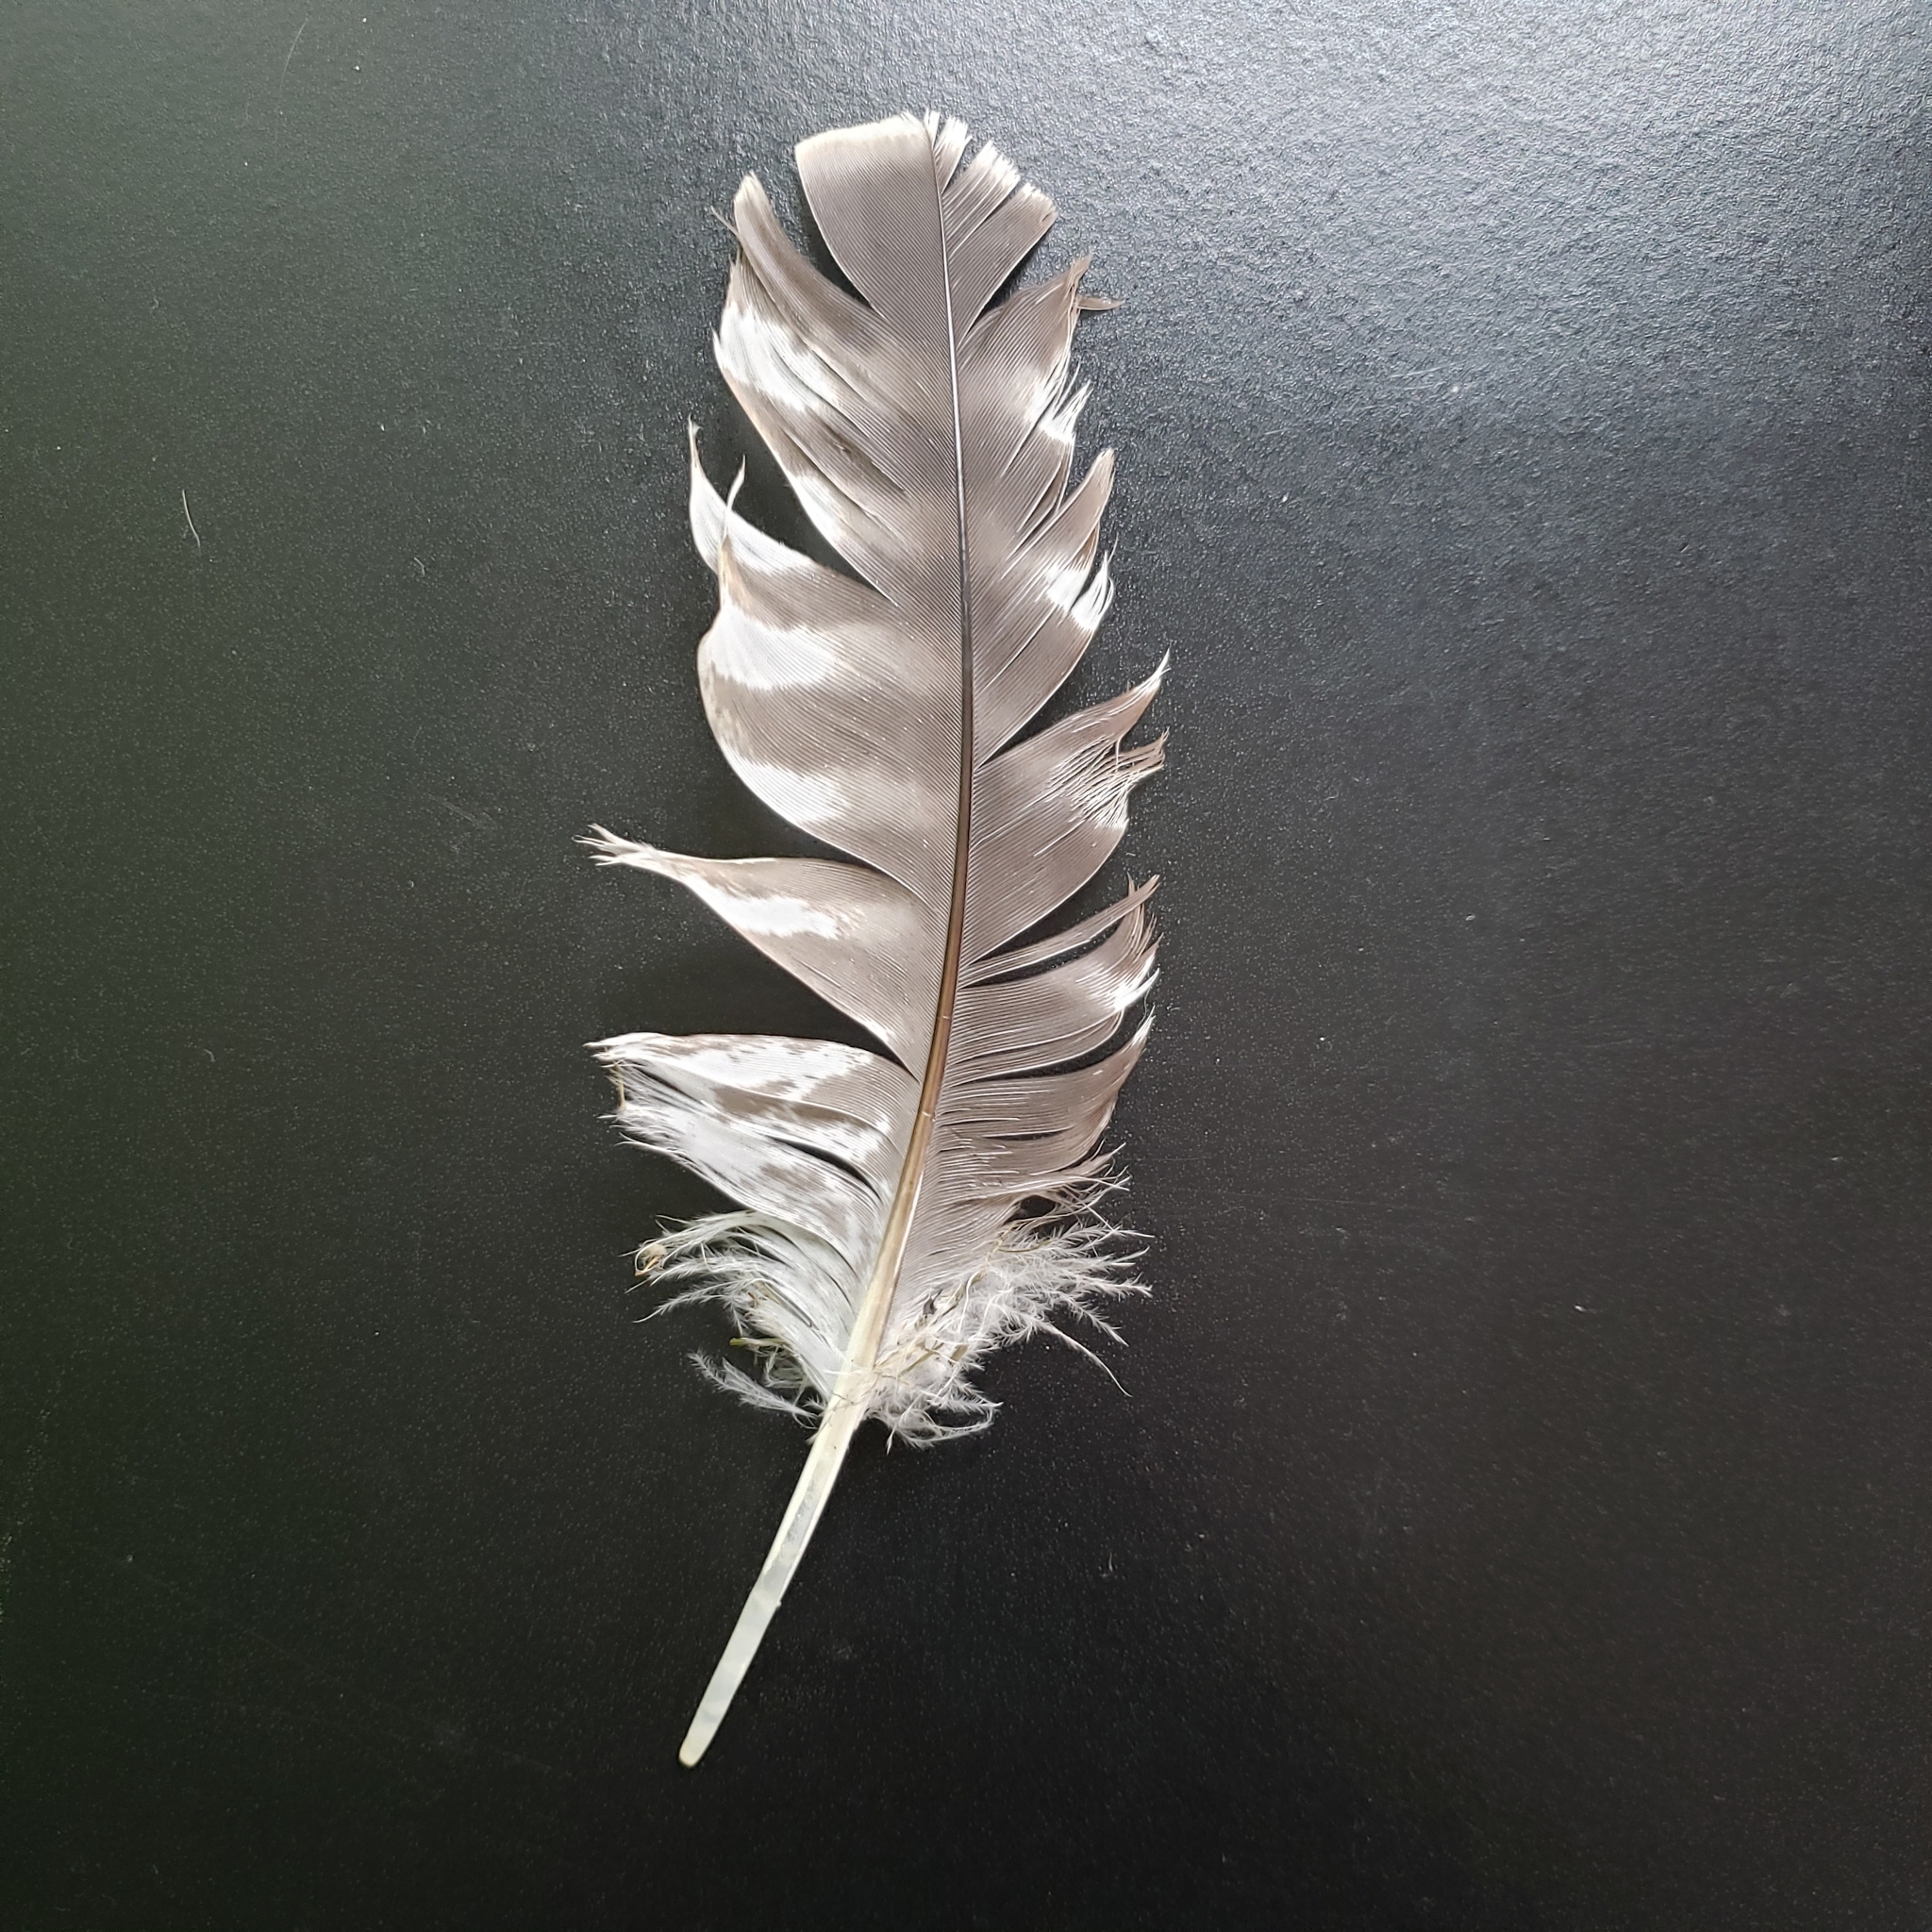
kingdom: Animalia
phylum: Chordata
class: Aves
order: Accipitriformes
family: Accipitridae
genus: Buteo
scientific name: Buteo lineatus
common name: Red-shouldered hawk
